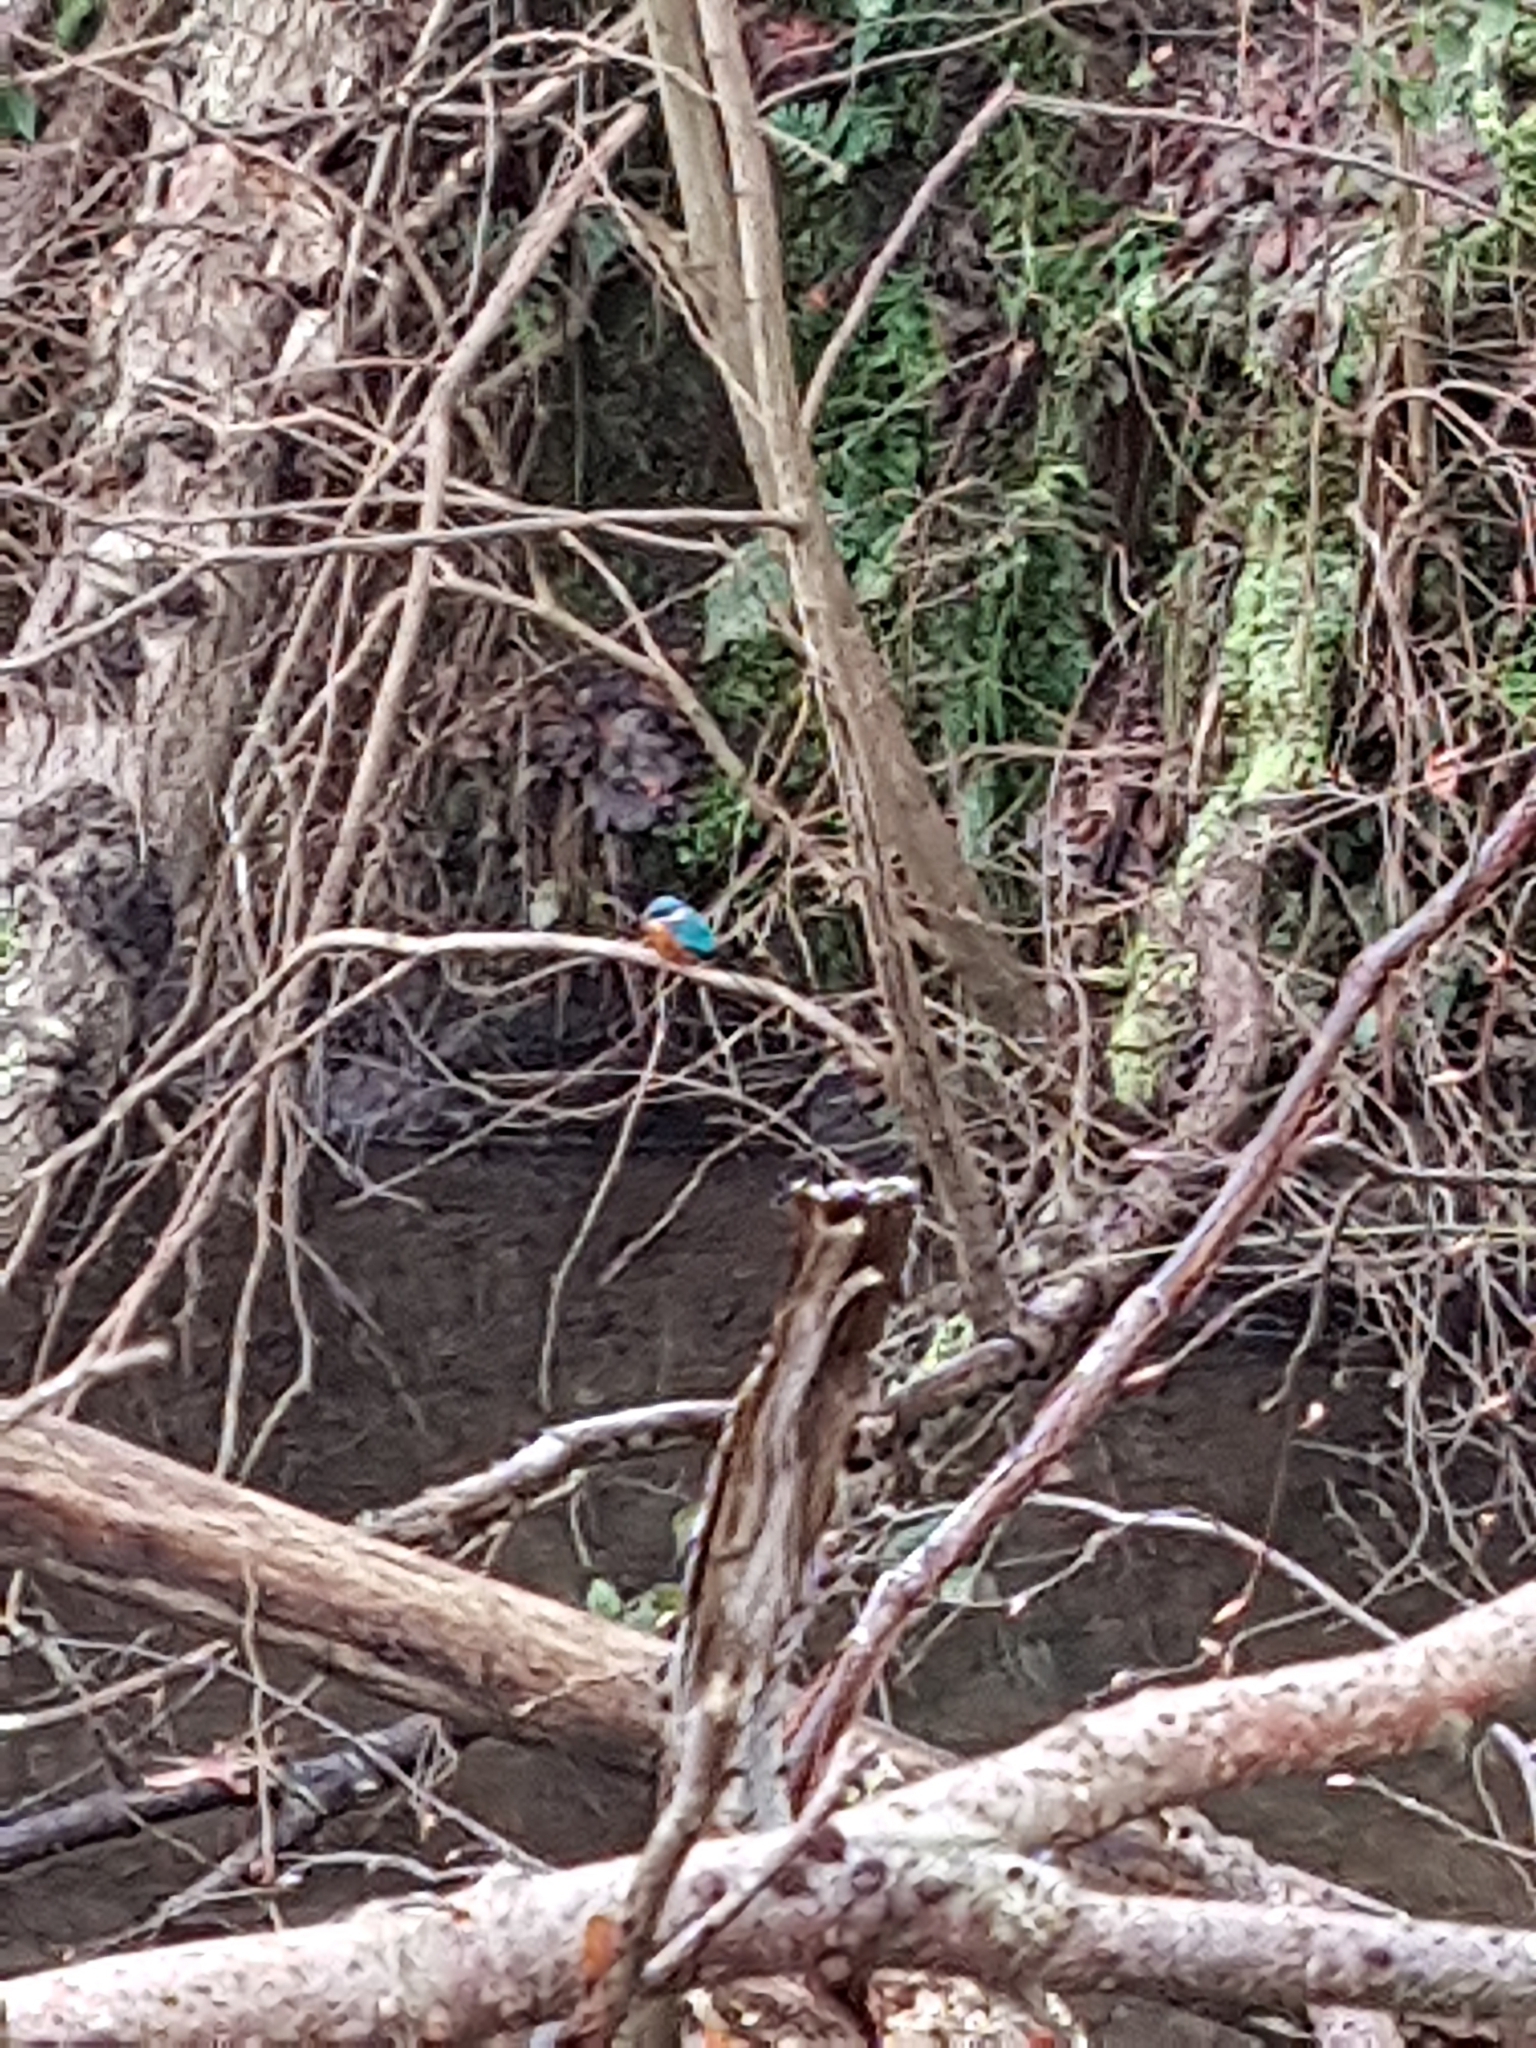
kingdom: Animalia
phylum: Chordata
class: Aves
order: Coraciiformes
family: Alcedinidae
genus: Alcedo
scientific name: Alcedo atthis
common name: Common kingfisher
